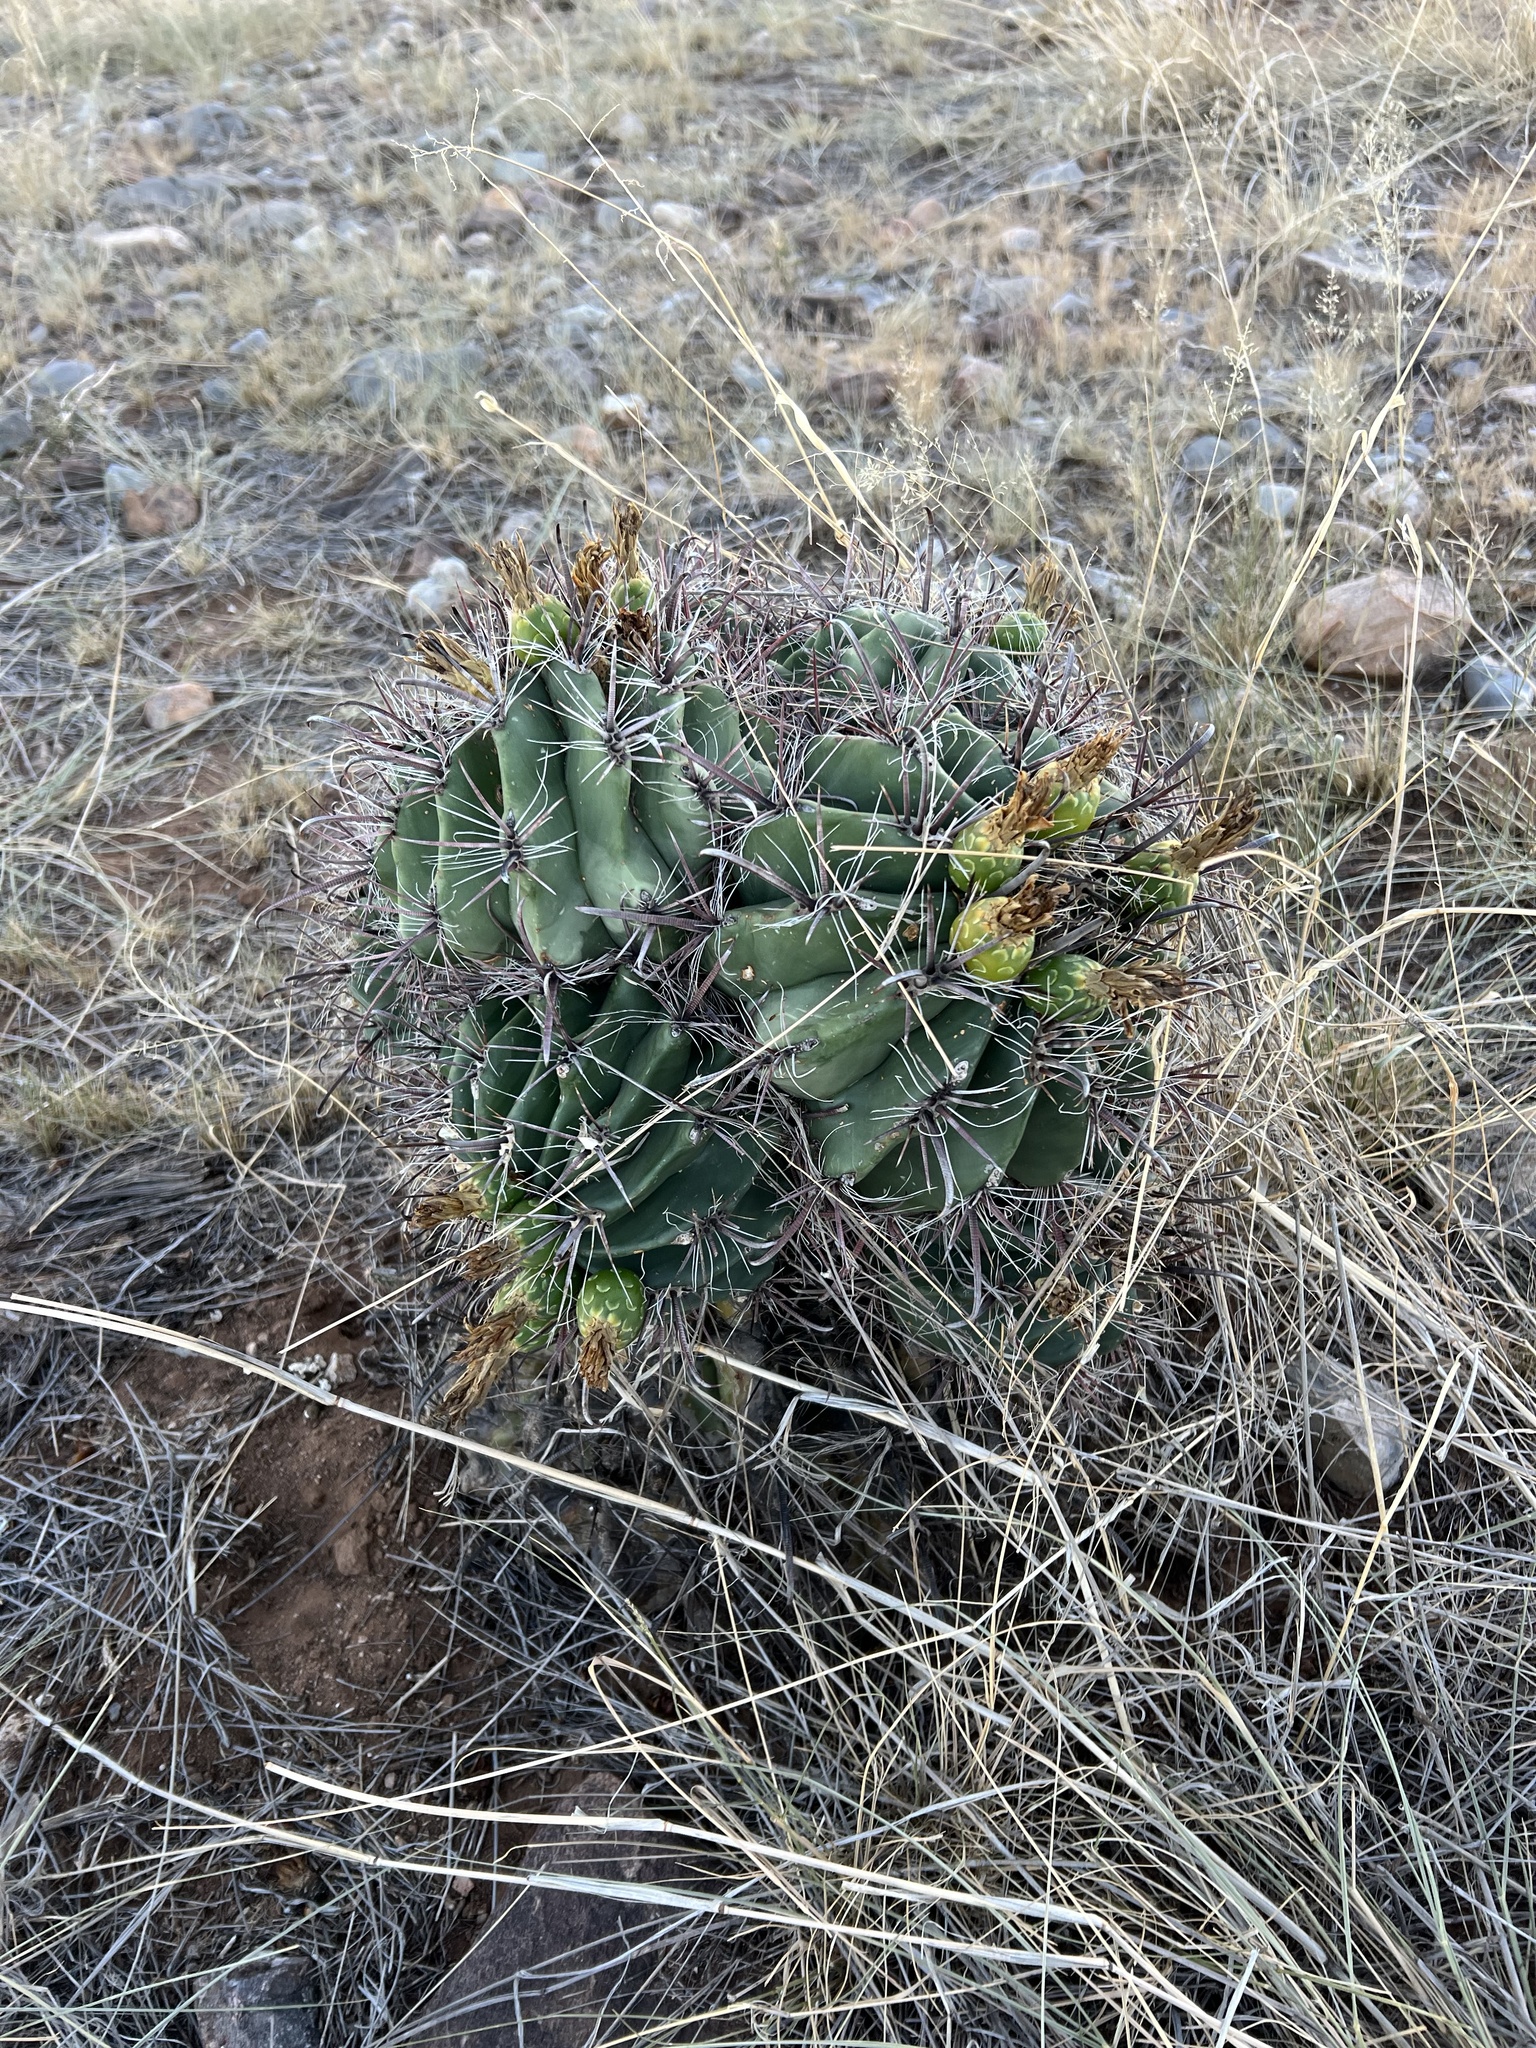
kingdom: Plantae
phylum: Tracheophyta
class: Magnoliopsida
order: Caryophyllales
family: Cactaceae
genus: Ferocactus
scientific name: Ferocactus wislizeni
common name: Candy barrel cactus
